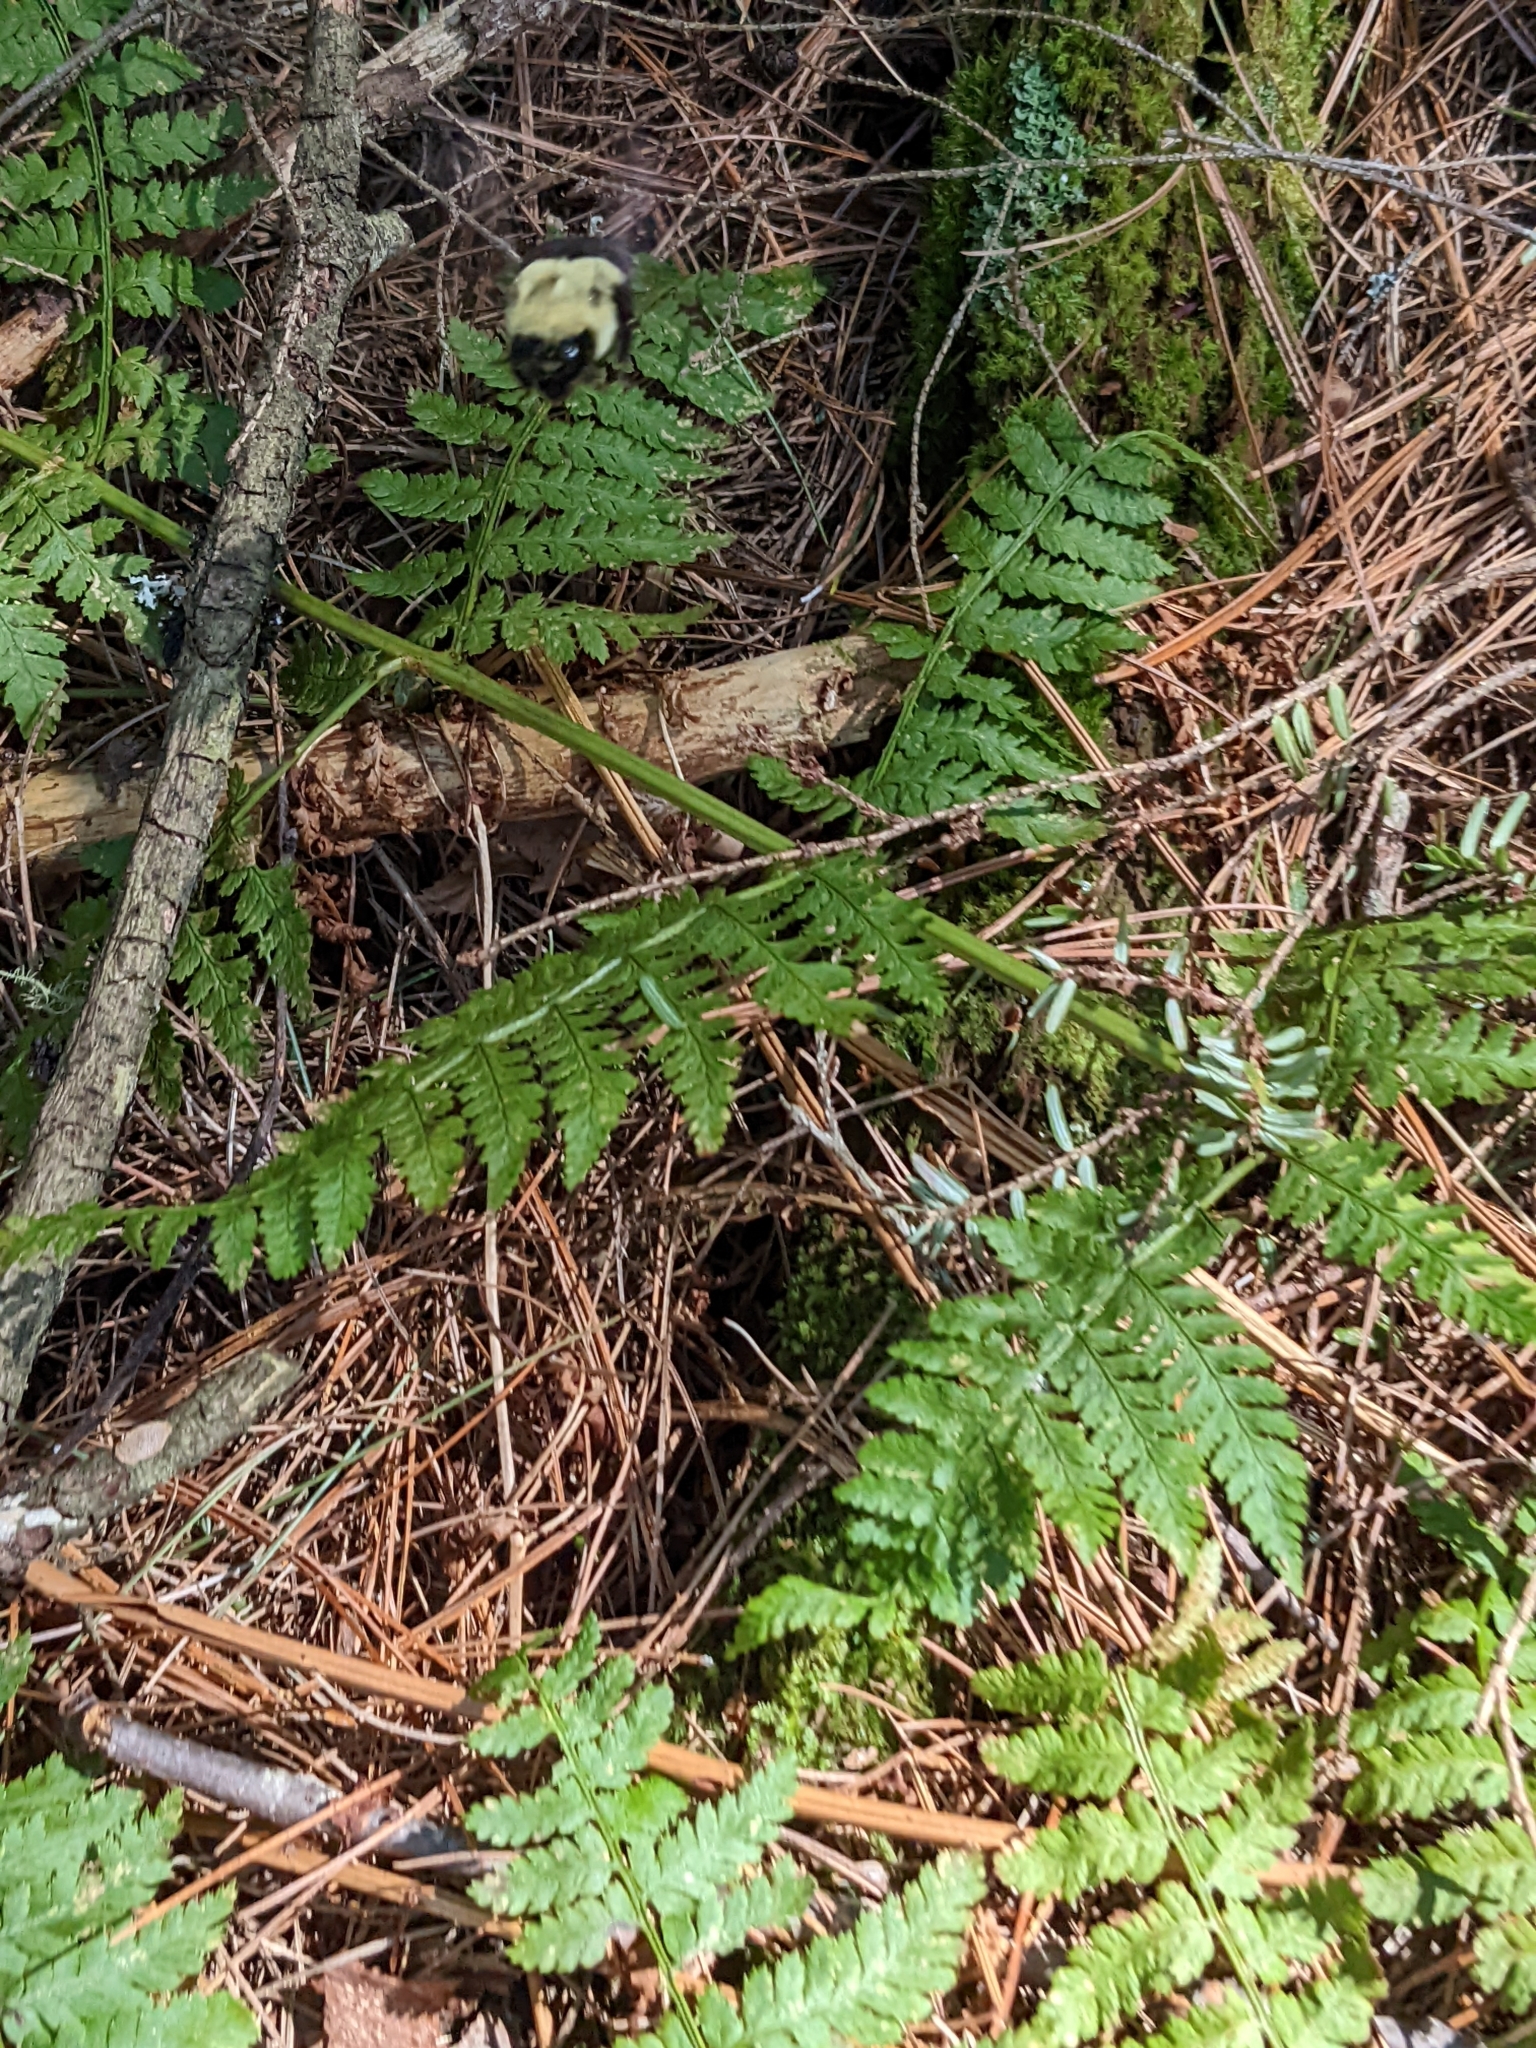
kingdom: Animalia
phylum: Arthropoda
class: Insecta
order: Hymenoptera
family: Apidae
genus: Bombus
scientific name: Bombus impatiens
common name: Common eastern bumble bee
